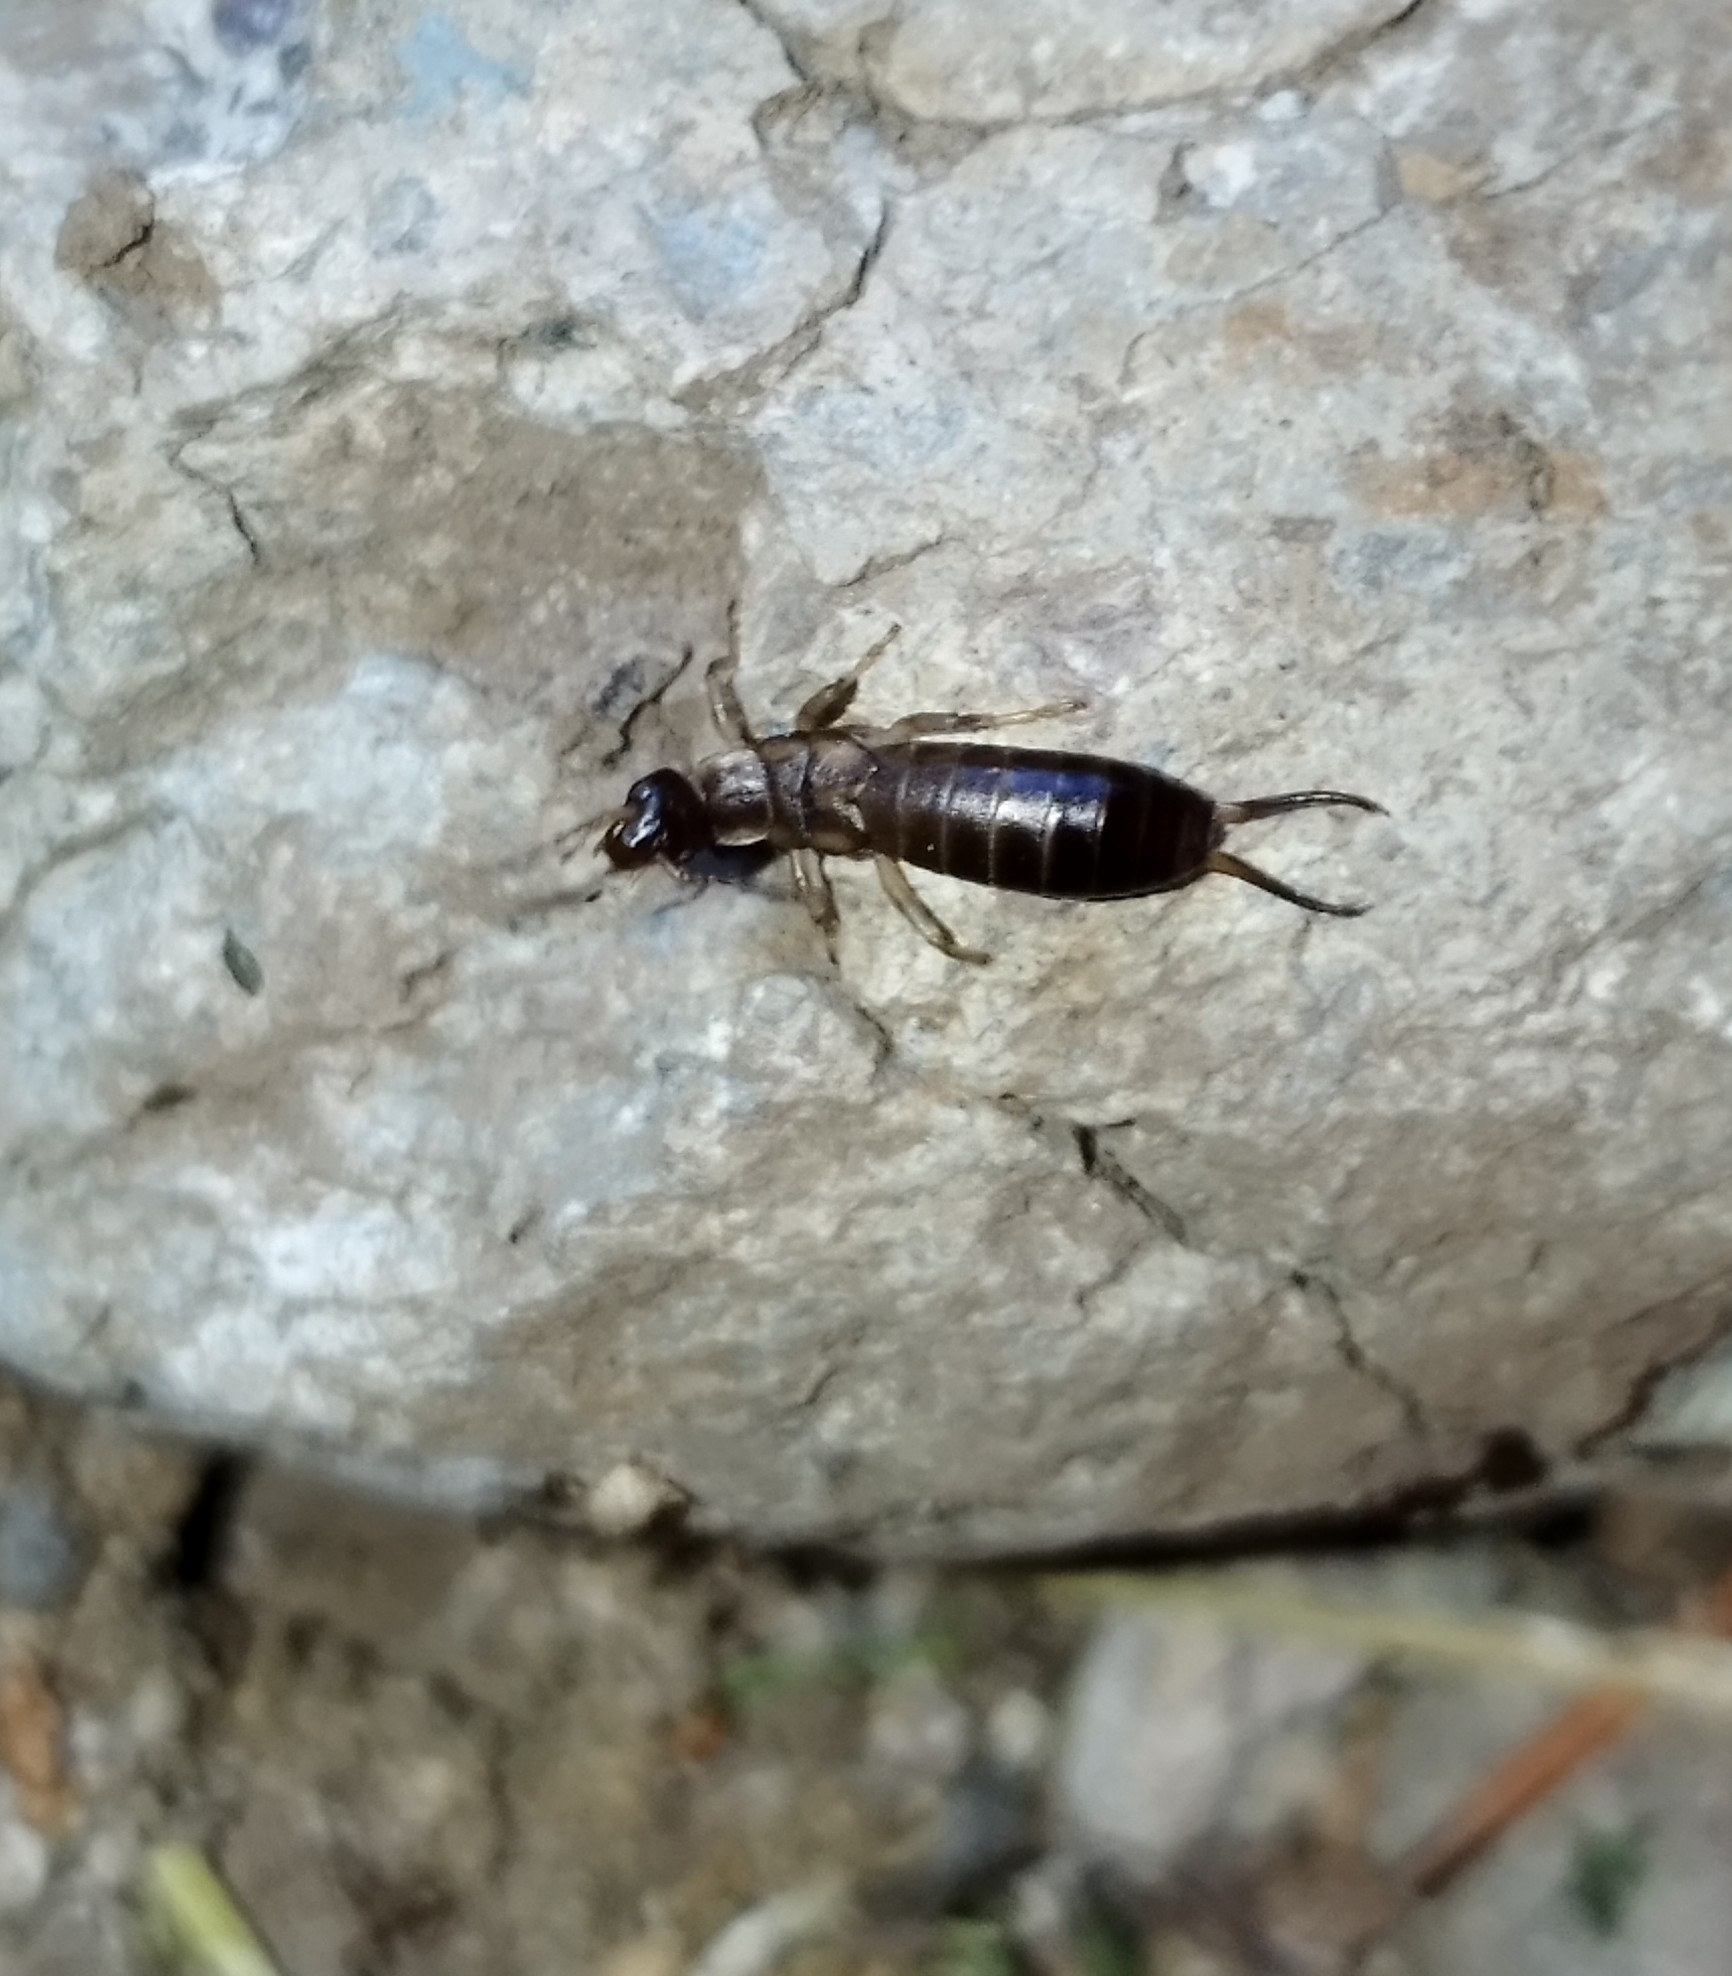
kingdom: Animalia
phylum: Arthropoda
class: Insecta
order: Dermaptera
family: Forficulidae
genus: Forficula
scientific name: Forficula
